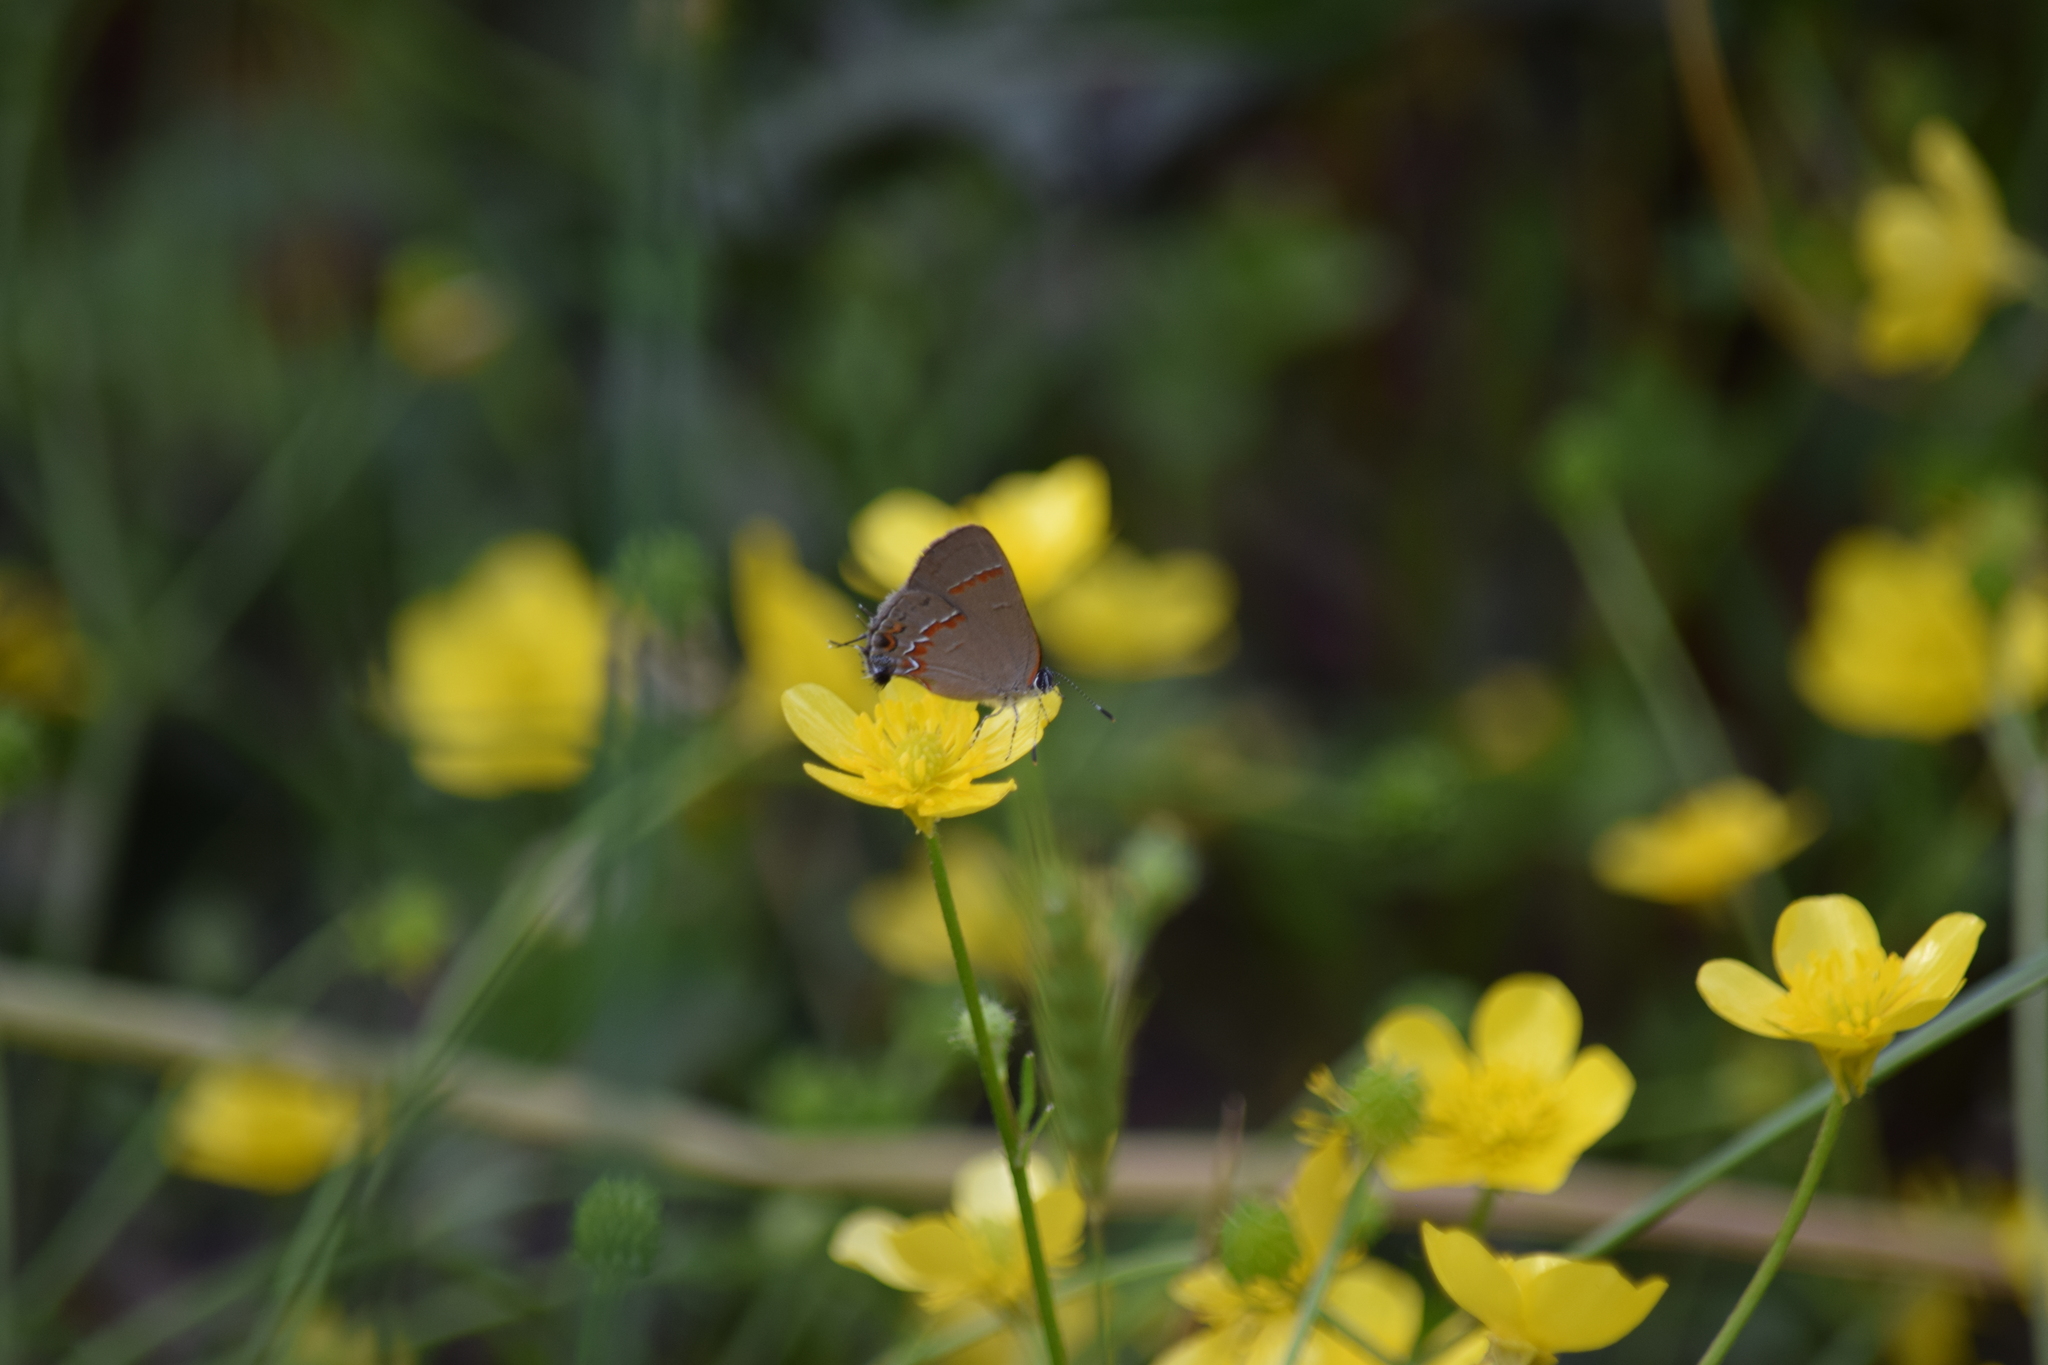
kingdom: Animalia
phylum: Arthropoda
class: Insecta
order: Lepidoptera
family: Lycaenidae
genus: Calycopis
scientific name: Calycopis cecrops
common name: Red-banded hairstreak
